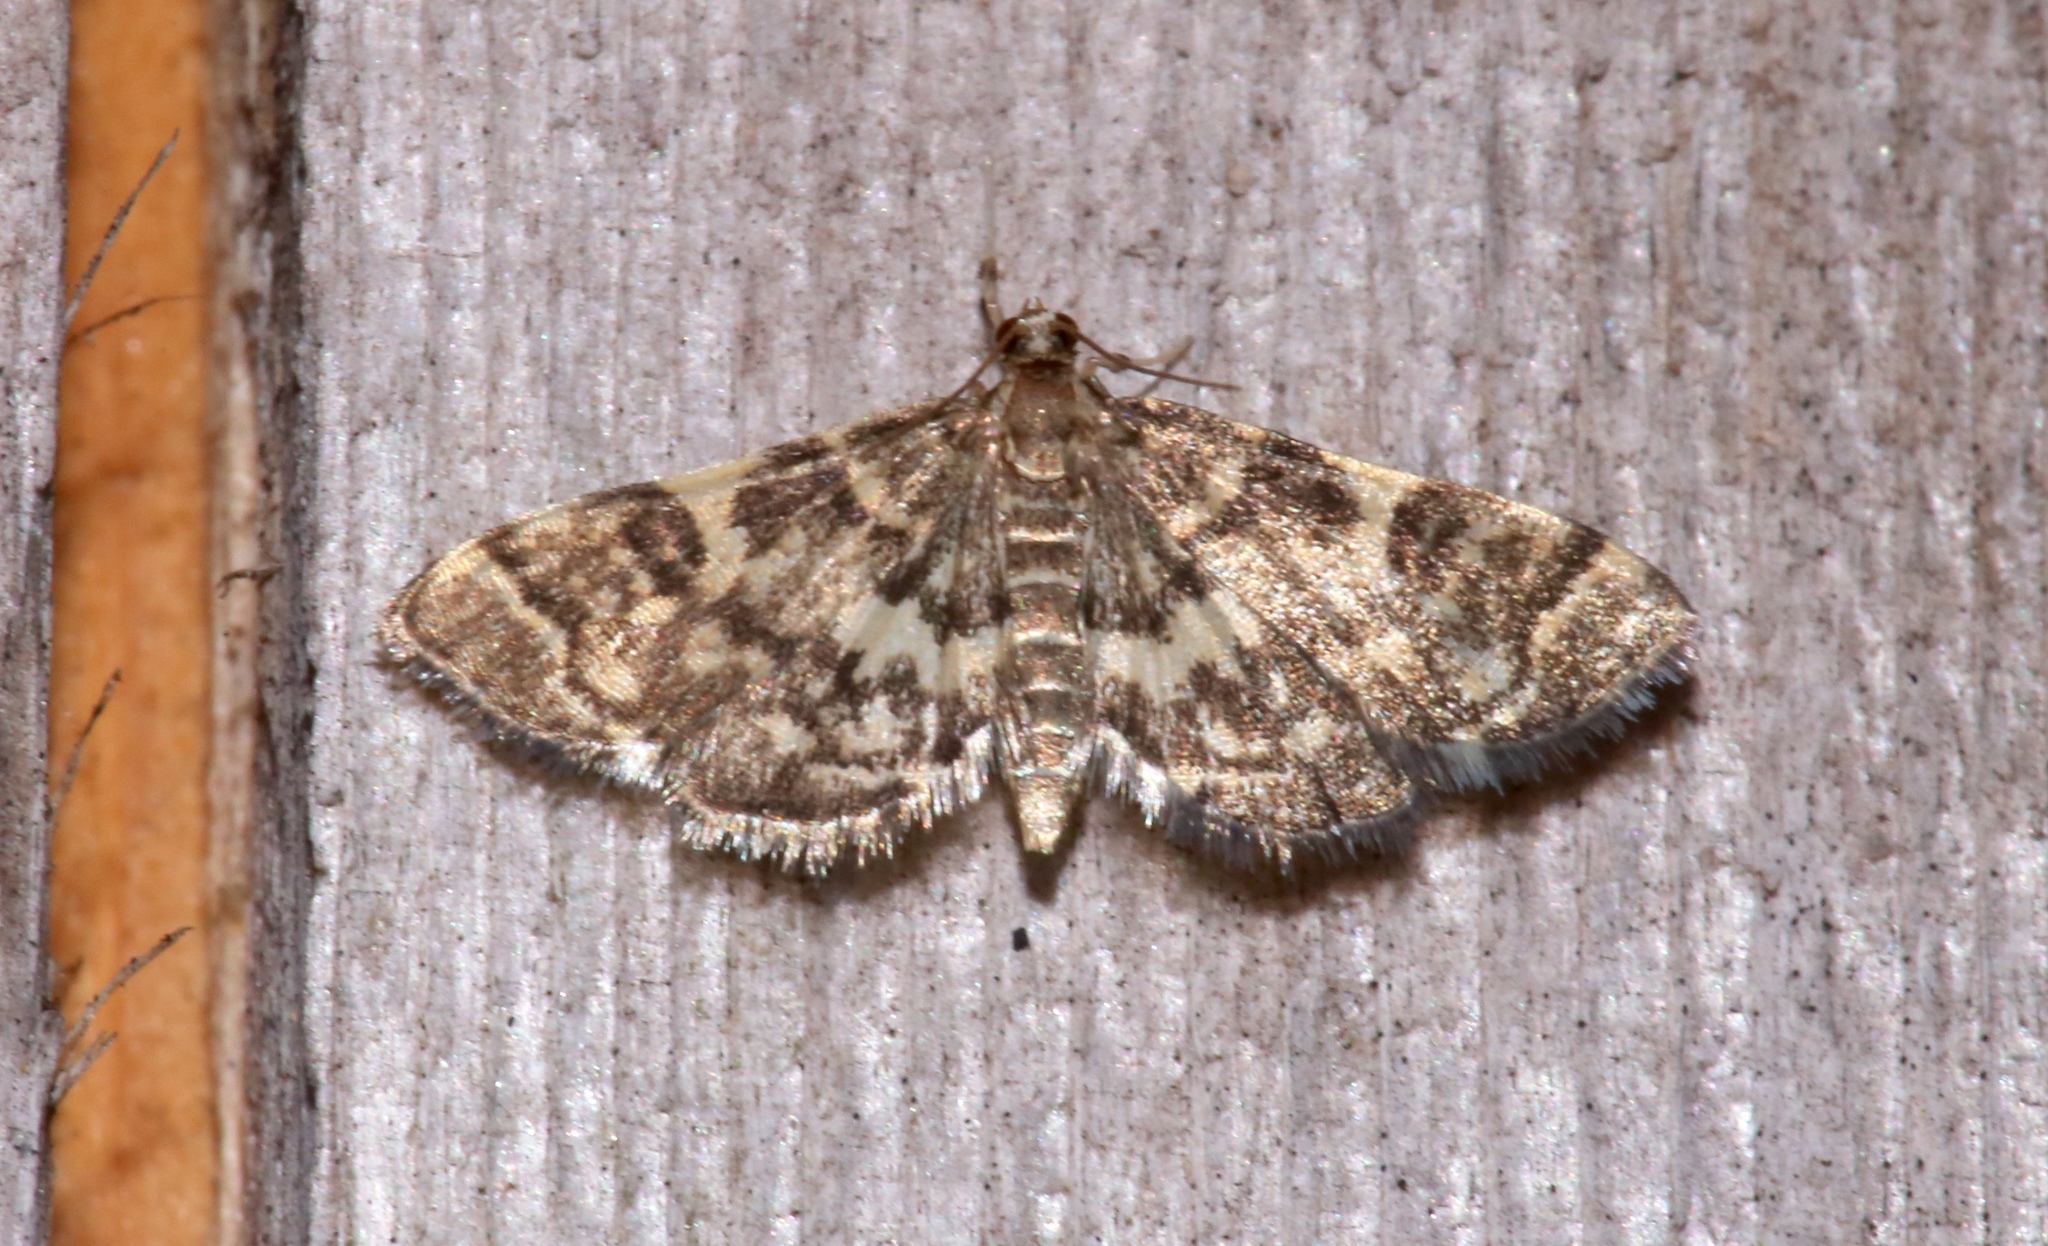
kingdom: Animalia
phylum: Arthropoda
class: Insecta
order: Lepidoptera
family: Crambidae
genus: Anageshna
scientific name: Anageshna primordialis
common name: Yellow-spotted webworm moth
